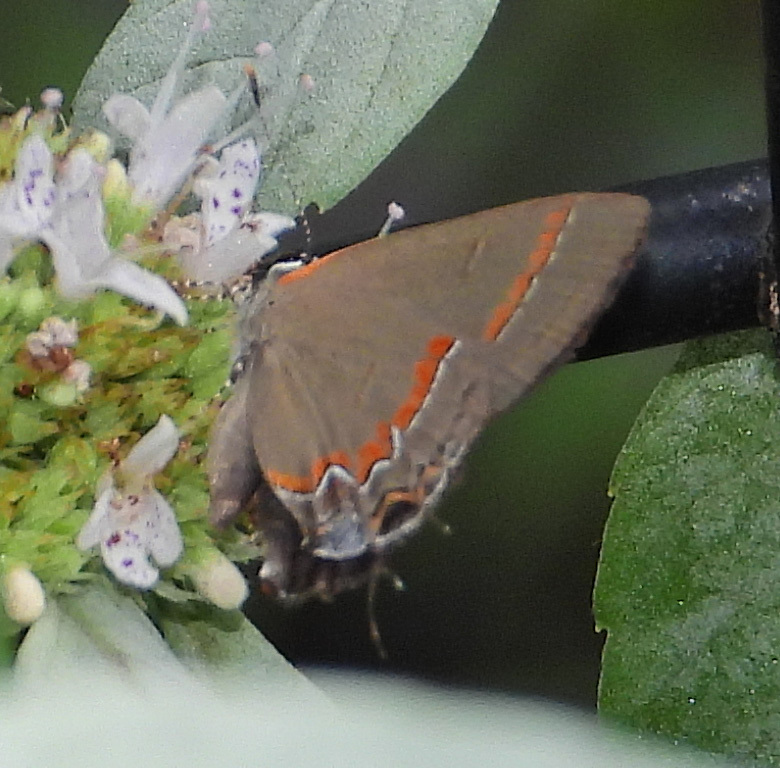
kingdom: Animalia
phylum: Arthropoda
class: Insecta
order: Lepidoptera
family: Lycaenidae
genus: Calycopis
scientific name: Calycopis cecrops
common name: Red-banded hairstreak
